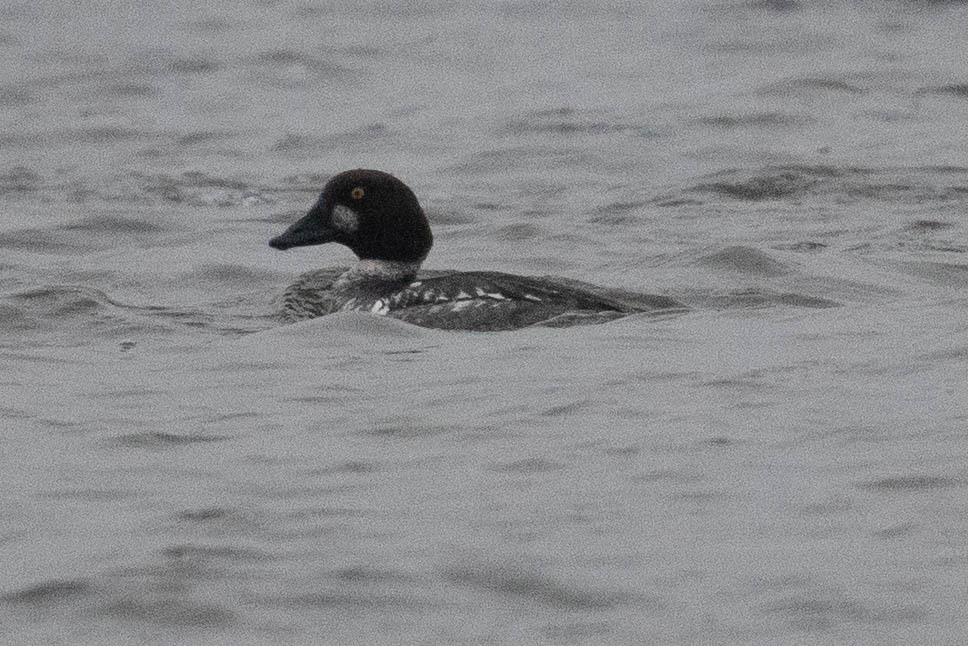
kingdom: Animalia
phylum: Chordata
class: Aves
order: Anseriformes
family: Anatidae
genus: Bucephala
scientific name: Bucephala clangula
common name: Common goldeneye
